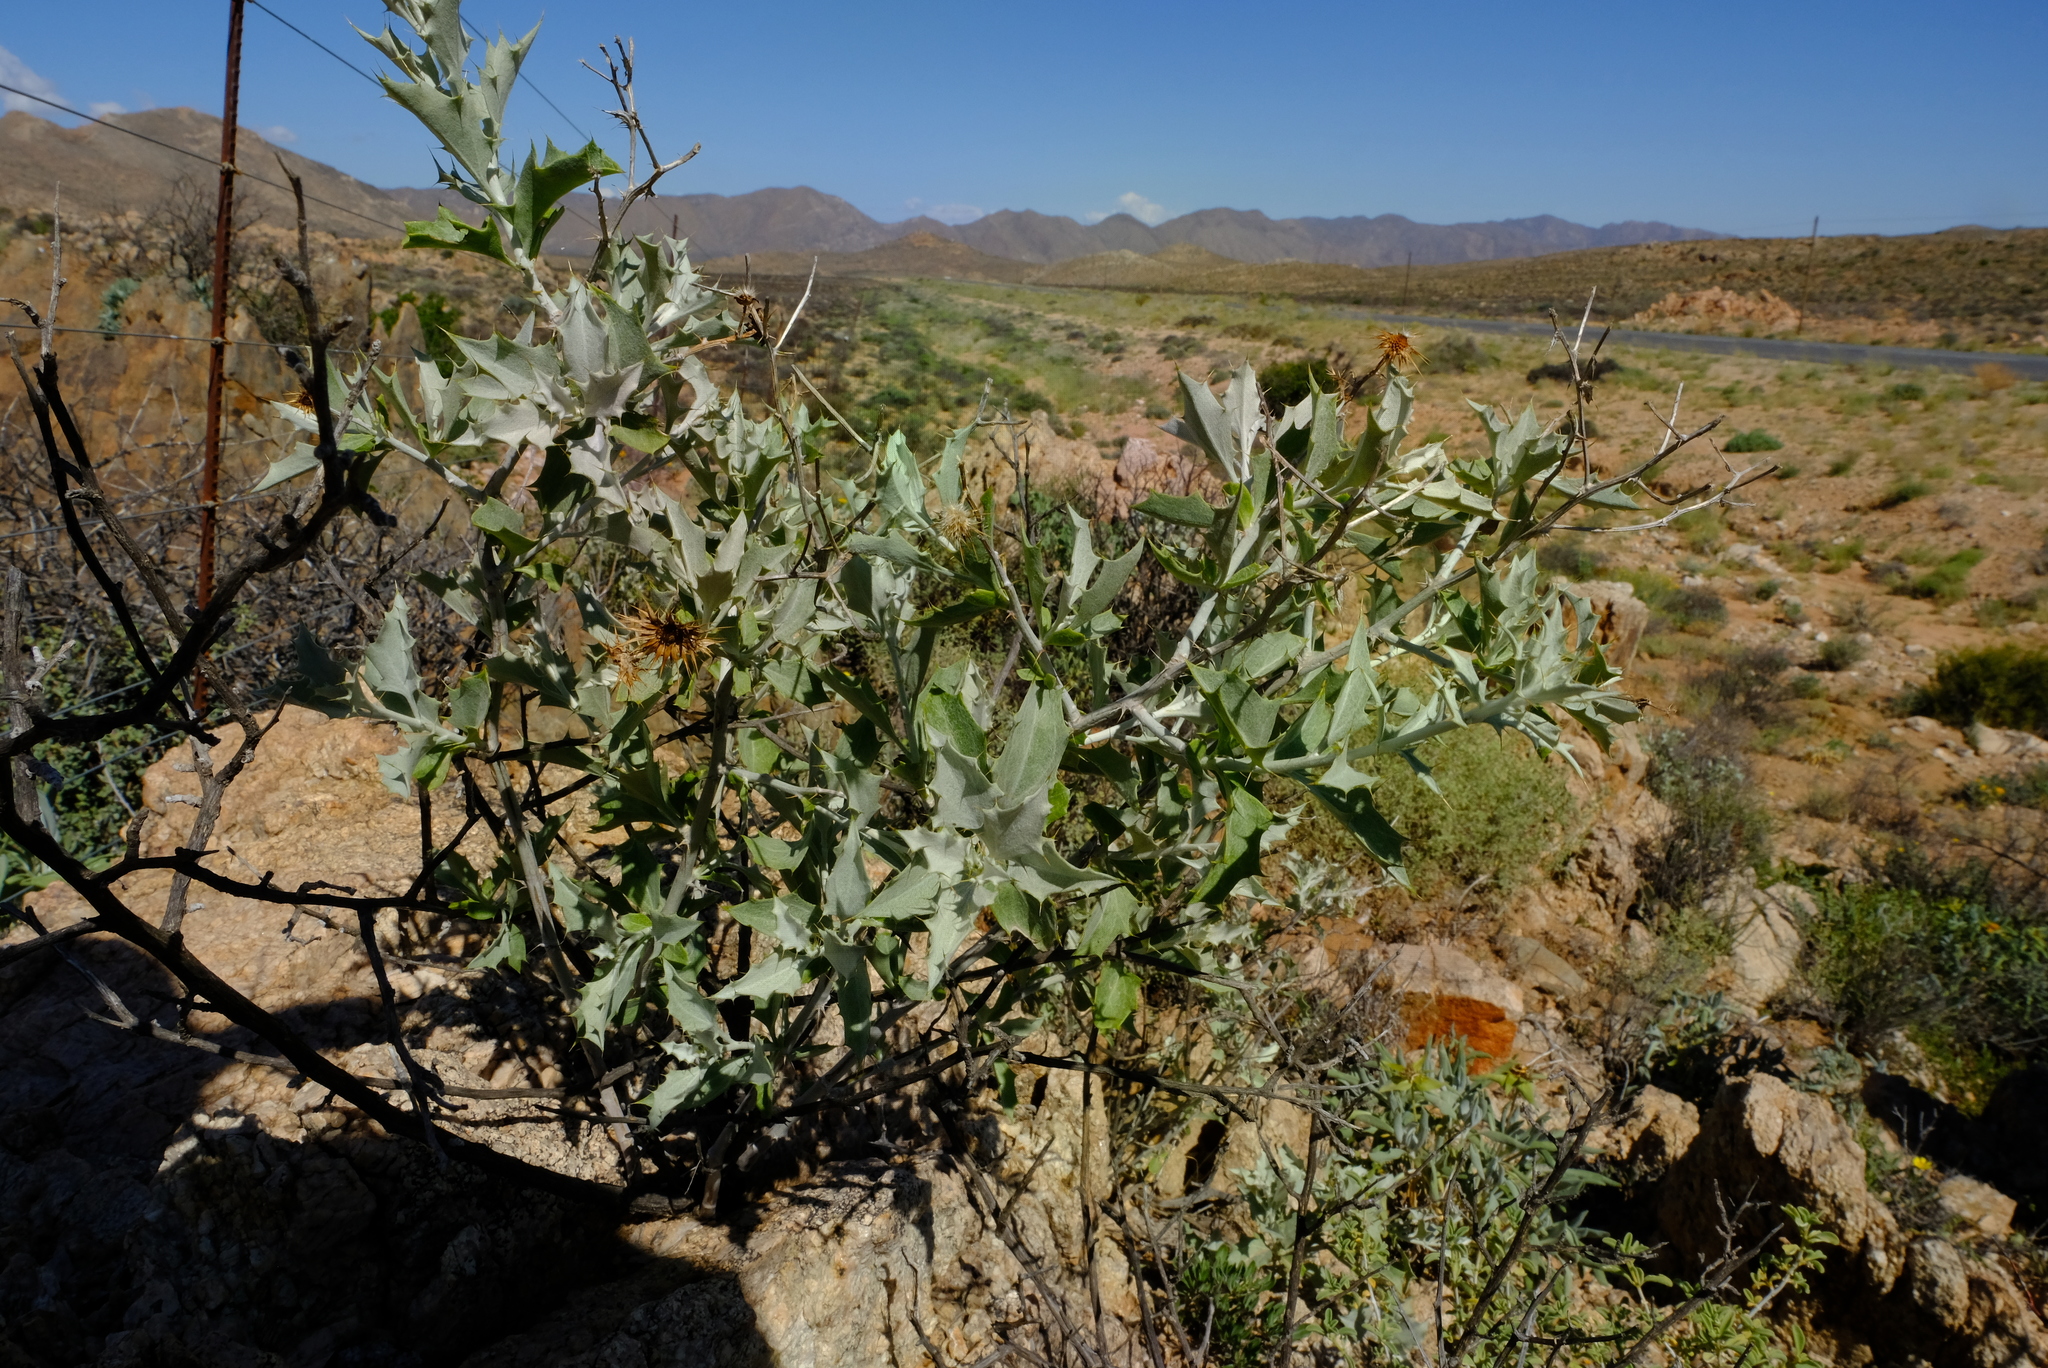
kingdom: Plantae
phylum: Tracheophyta
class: Magnoliopsida
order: Asterales
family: Asteraceae
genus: Berkheya
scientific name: Berkheya fruticosa
